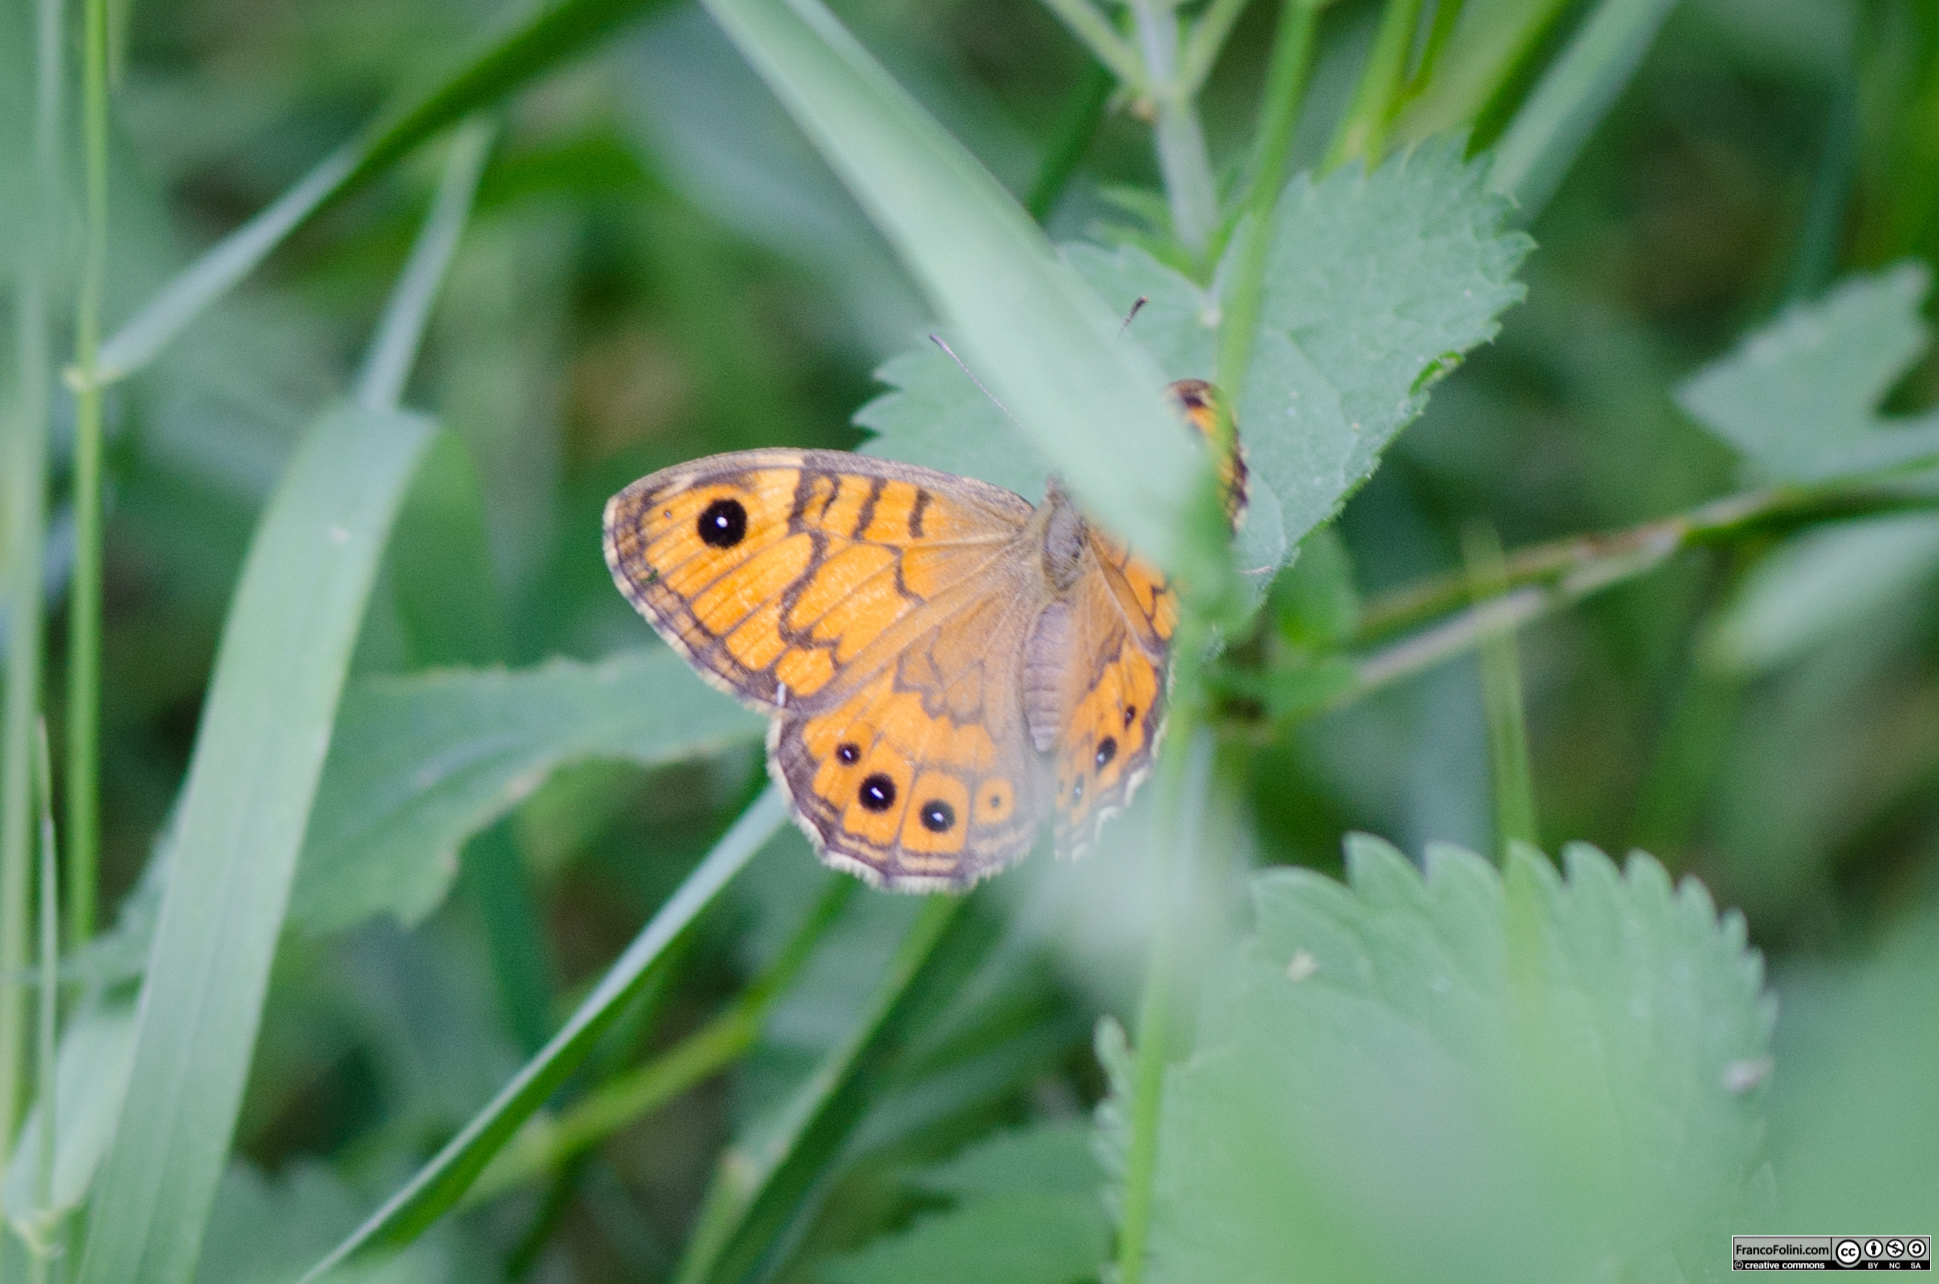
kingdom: Animalia
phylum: Arthropoda
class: Insecta
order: Lepidoptera
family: Nymphalidae
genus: Pararge
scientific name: Pararge Lasiommata megera
